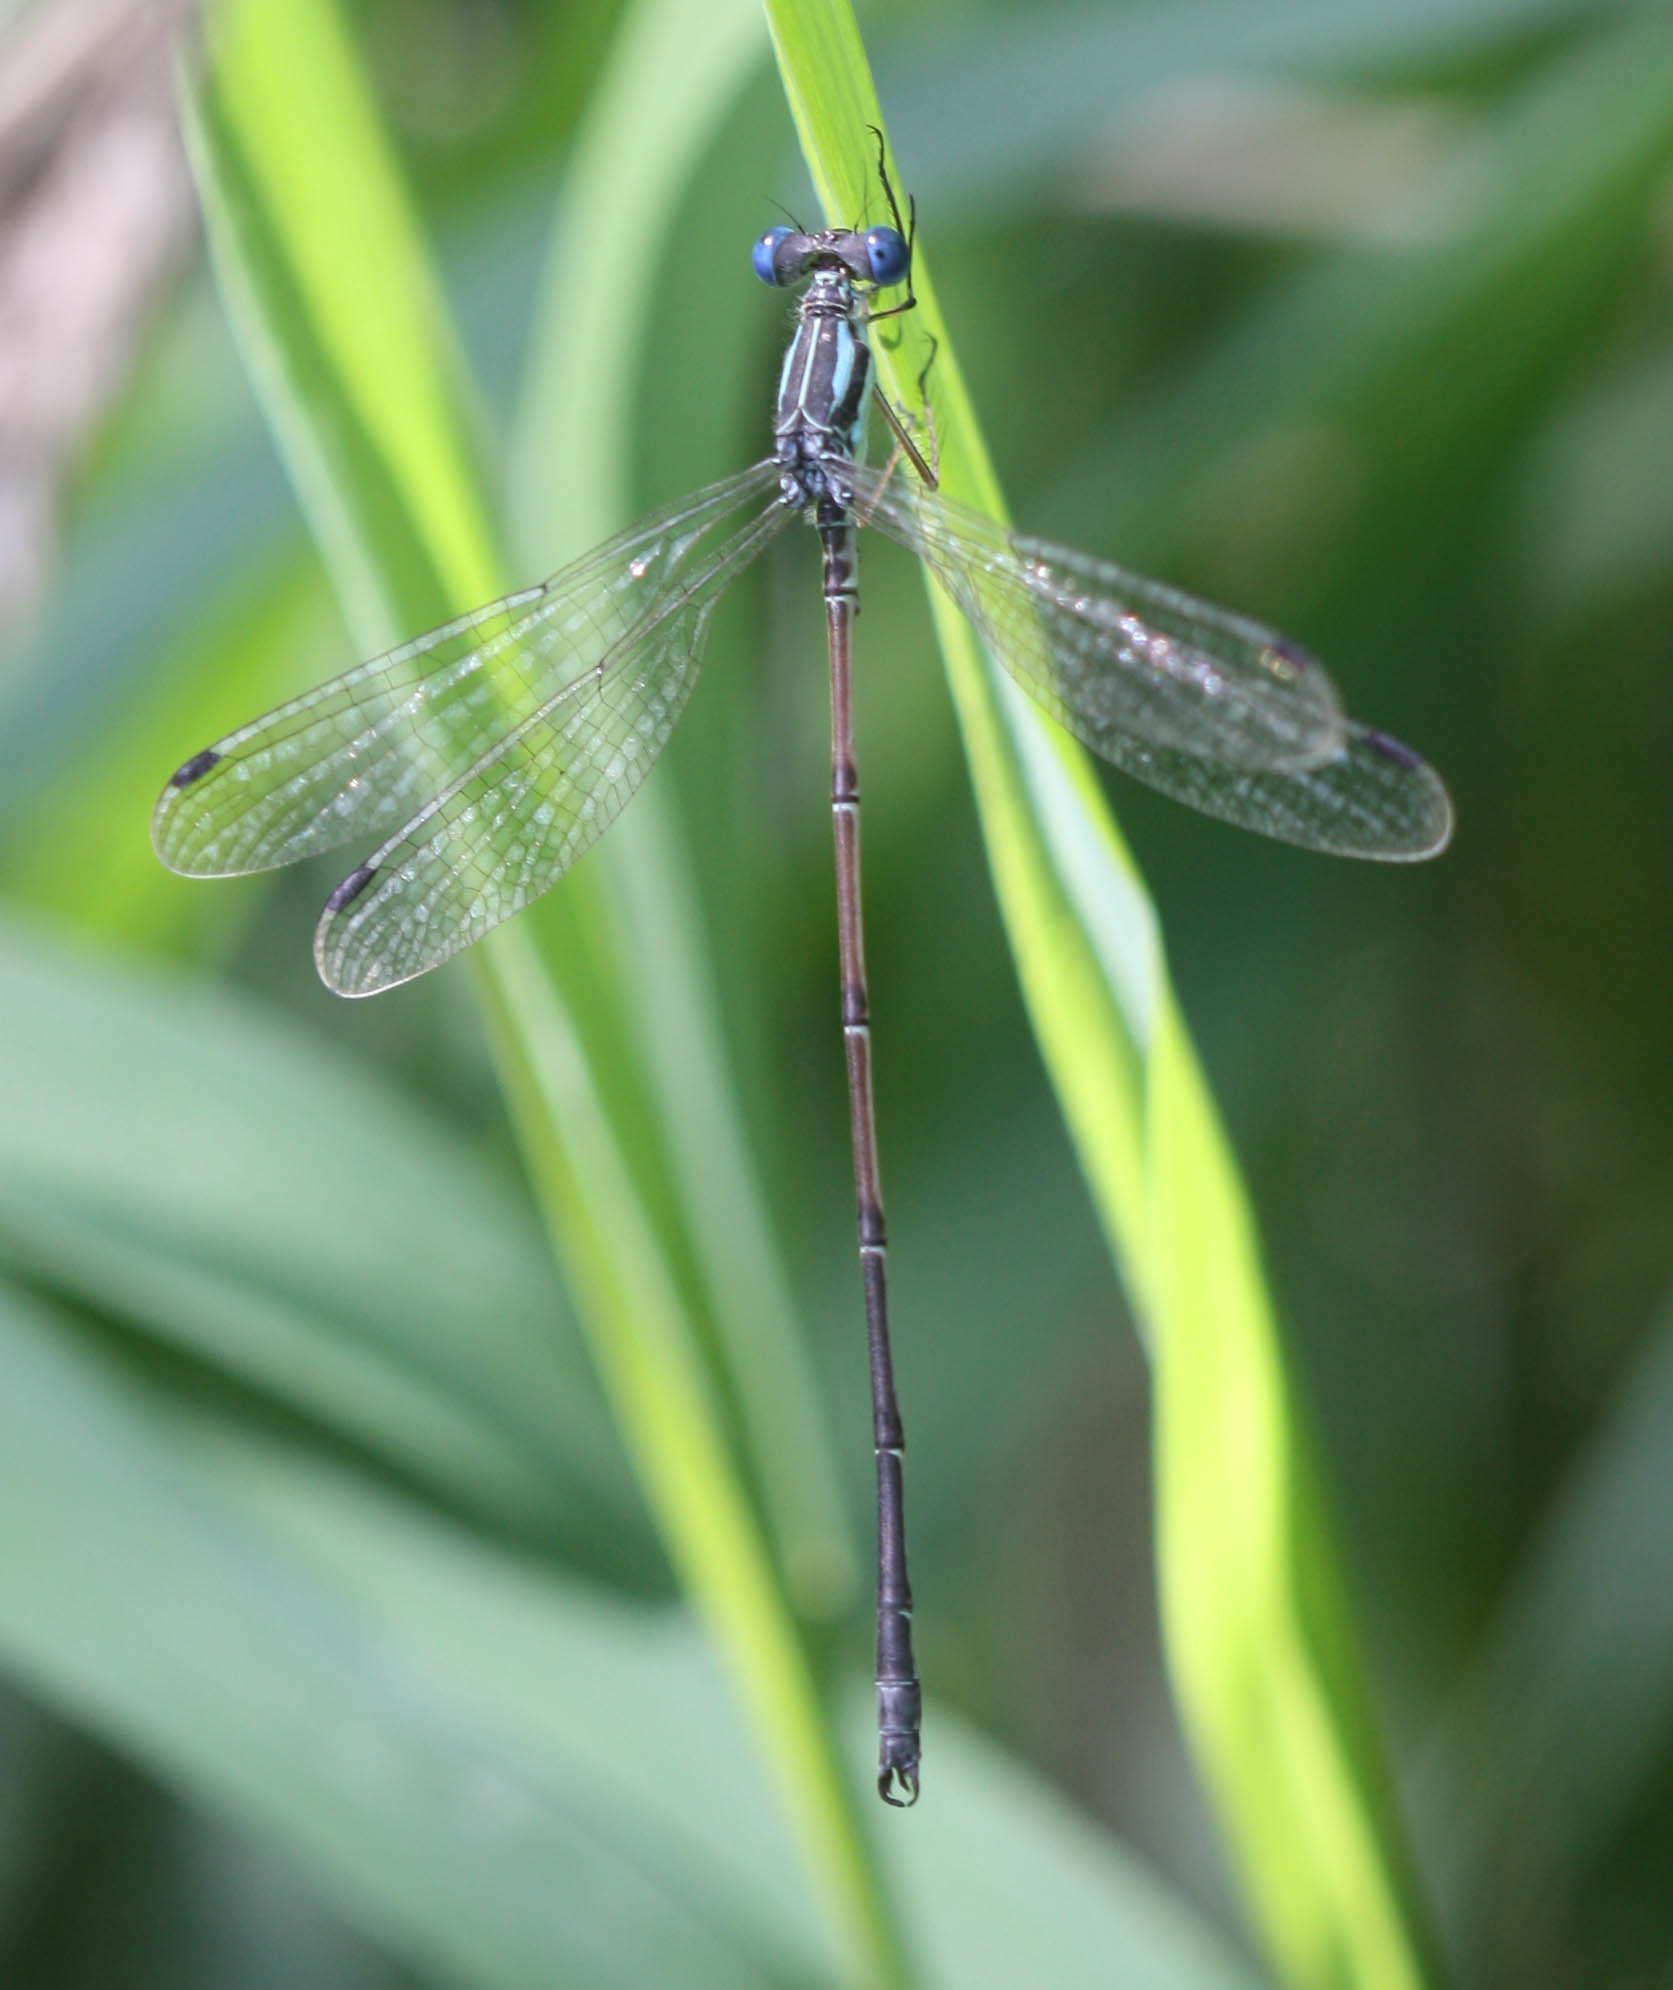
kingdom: Animalia
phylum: Arthropoda
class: Insecta
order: Odonata
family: Lestidae
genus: Lestes
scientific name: Lestes rectangularis
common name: Slender spreadwing
